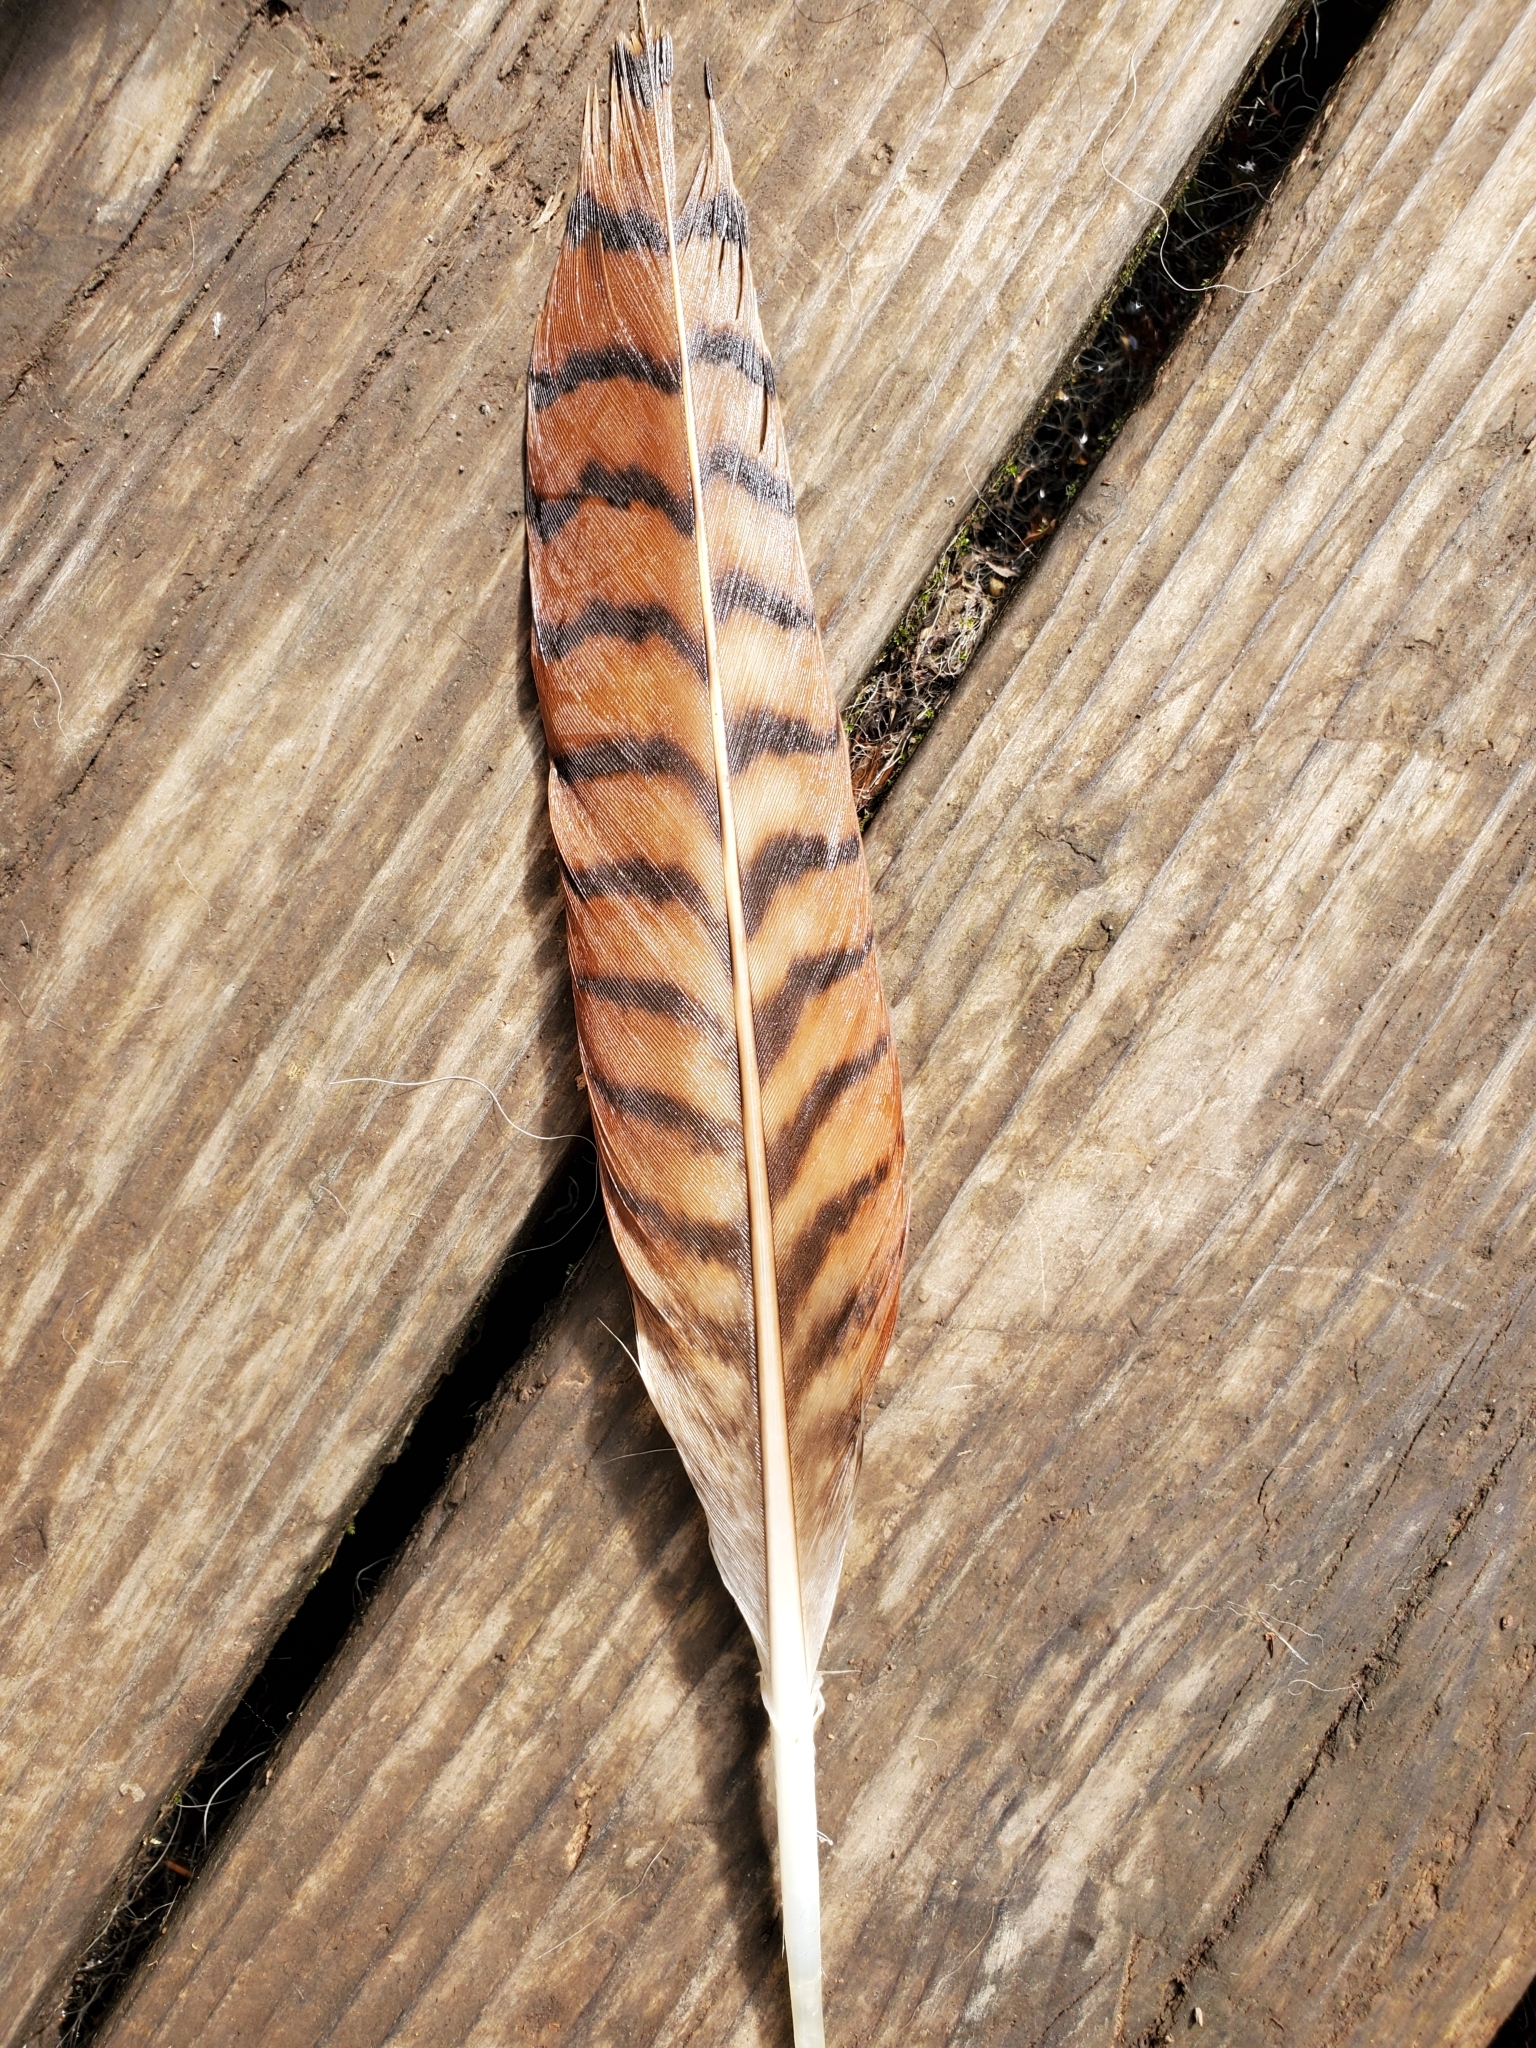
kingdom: Animalia
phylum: Chordata
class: Aves
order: Accipitriformes
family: Accipitridae
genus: Buteo
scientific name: Buteo jamaicensis
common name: Red-tailed hawk
